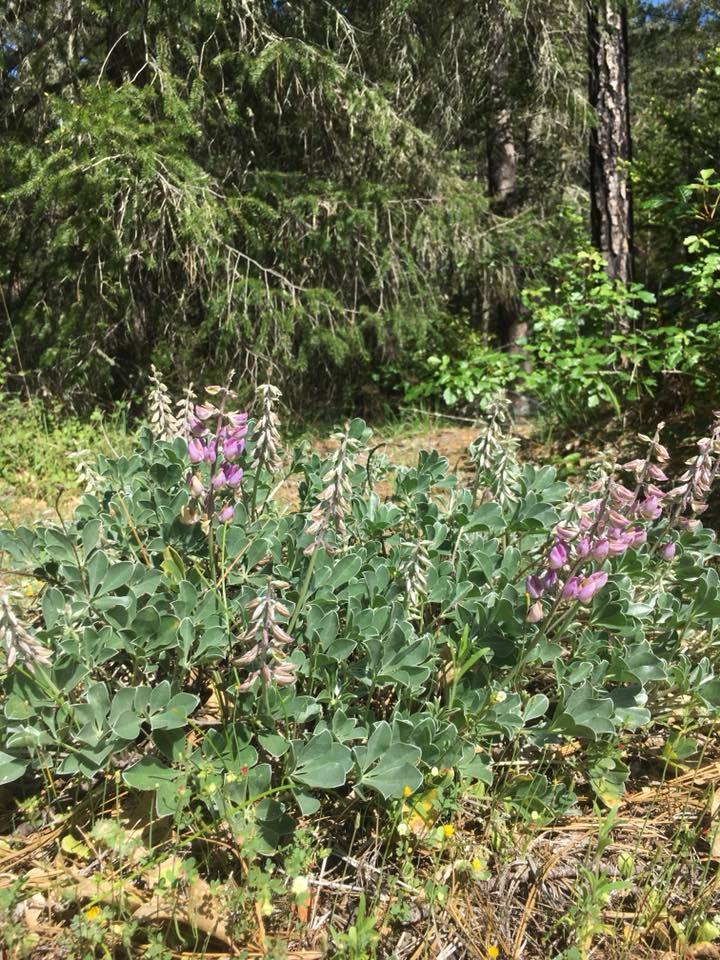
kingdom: Plantae
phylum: Tracheophyta
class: Magnoliopsida
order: Fabales
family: Fabaceae
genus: Lupinus
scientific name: Lupinus sericatus
